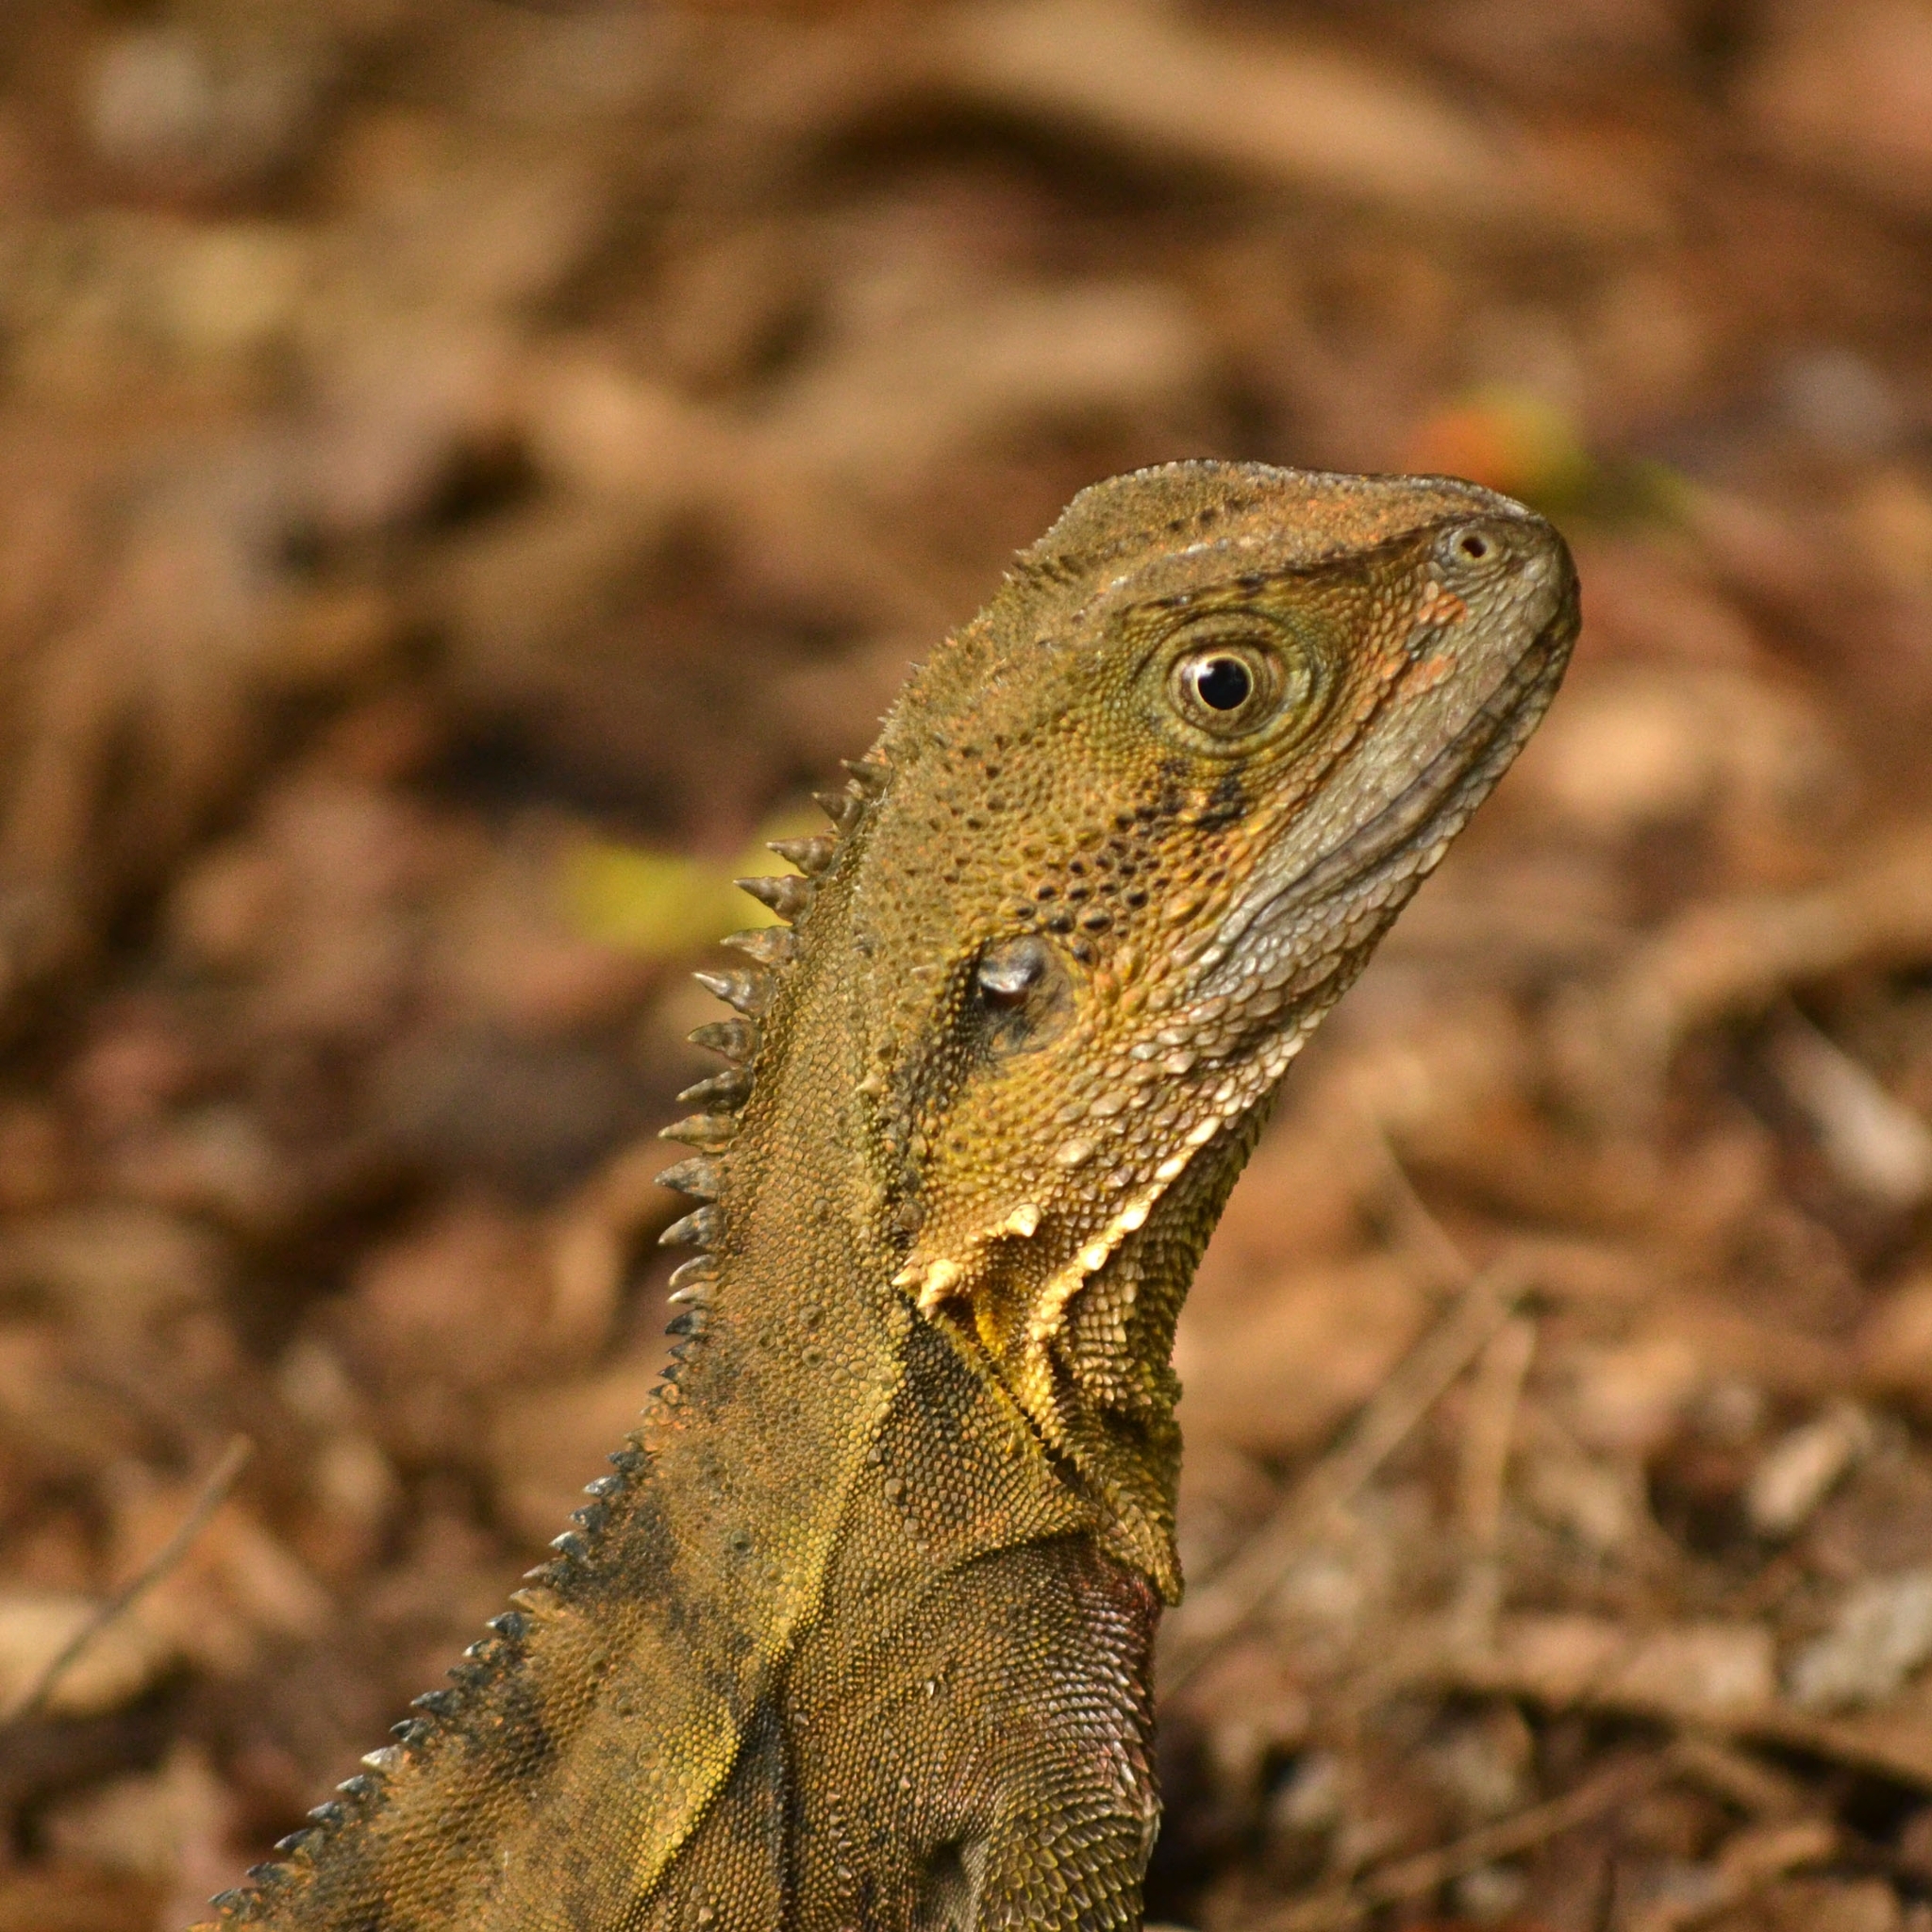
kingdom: Animalia
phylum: Chordata
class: Squamata
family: Agamidae
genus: Intellagama
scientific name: Intellagama lesueurii
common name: Eastern water dragon
